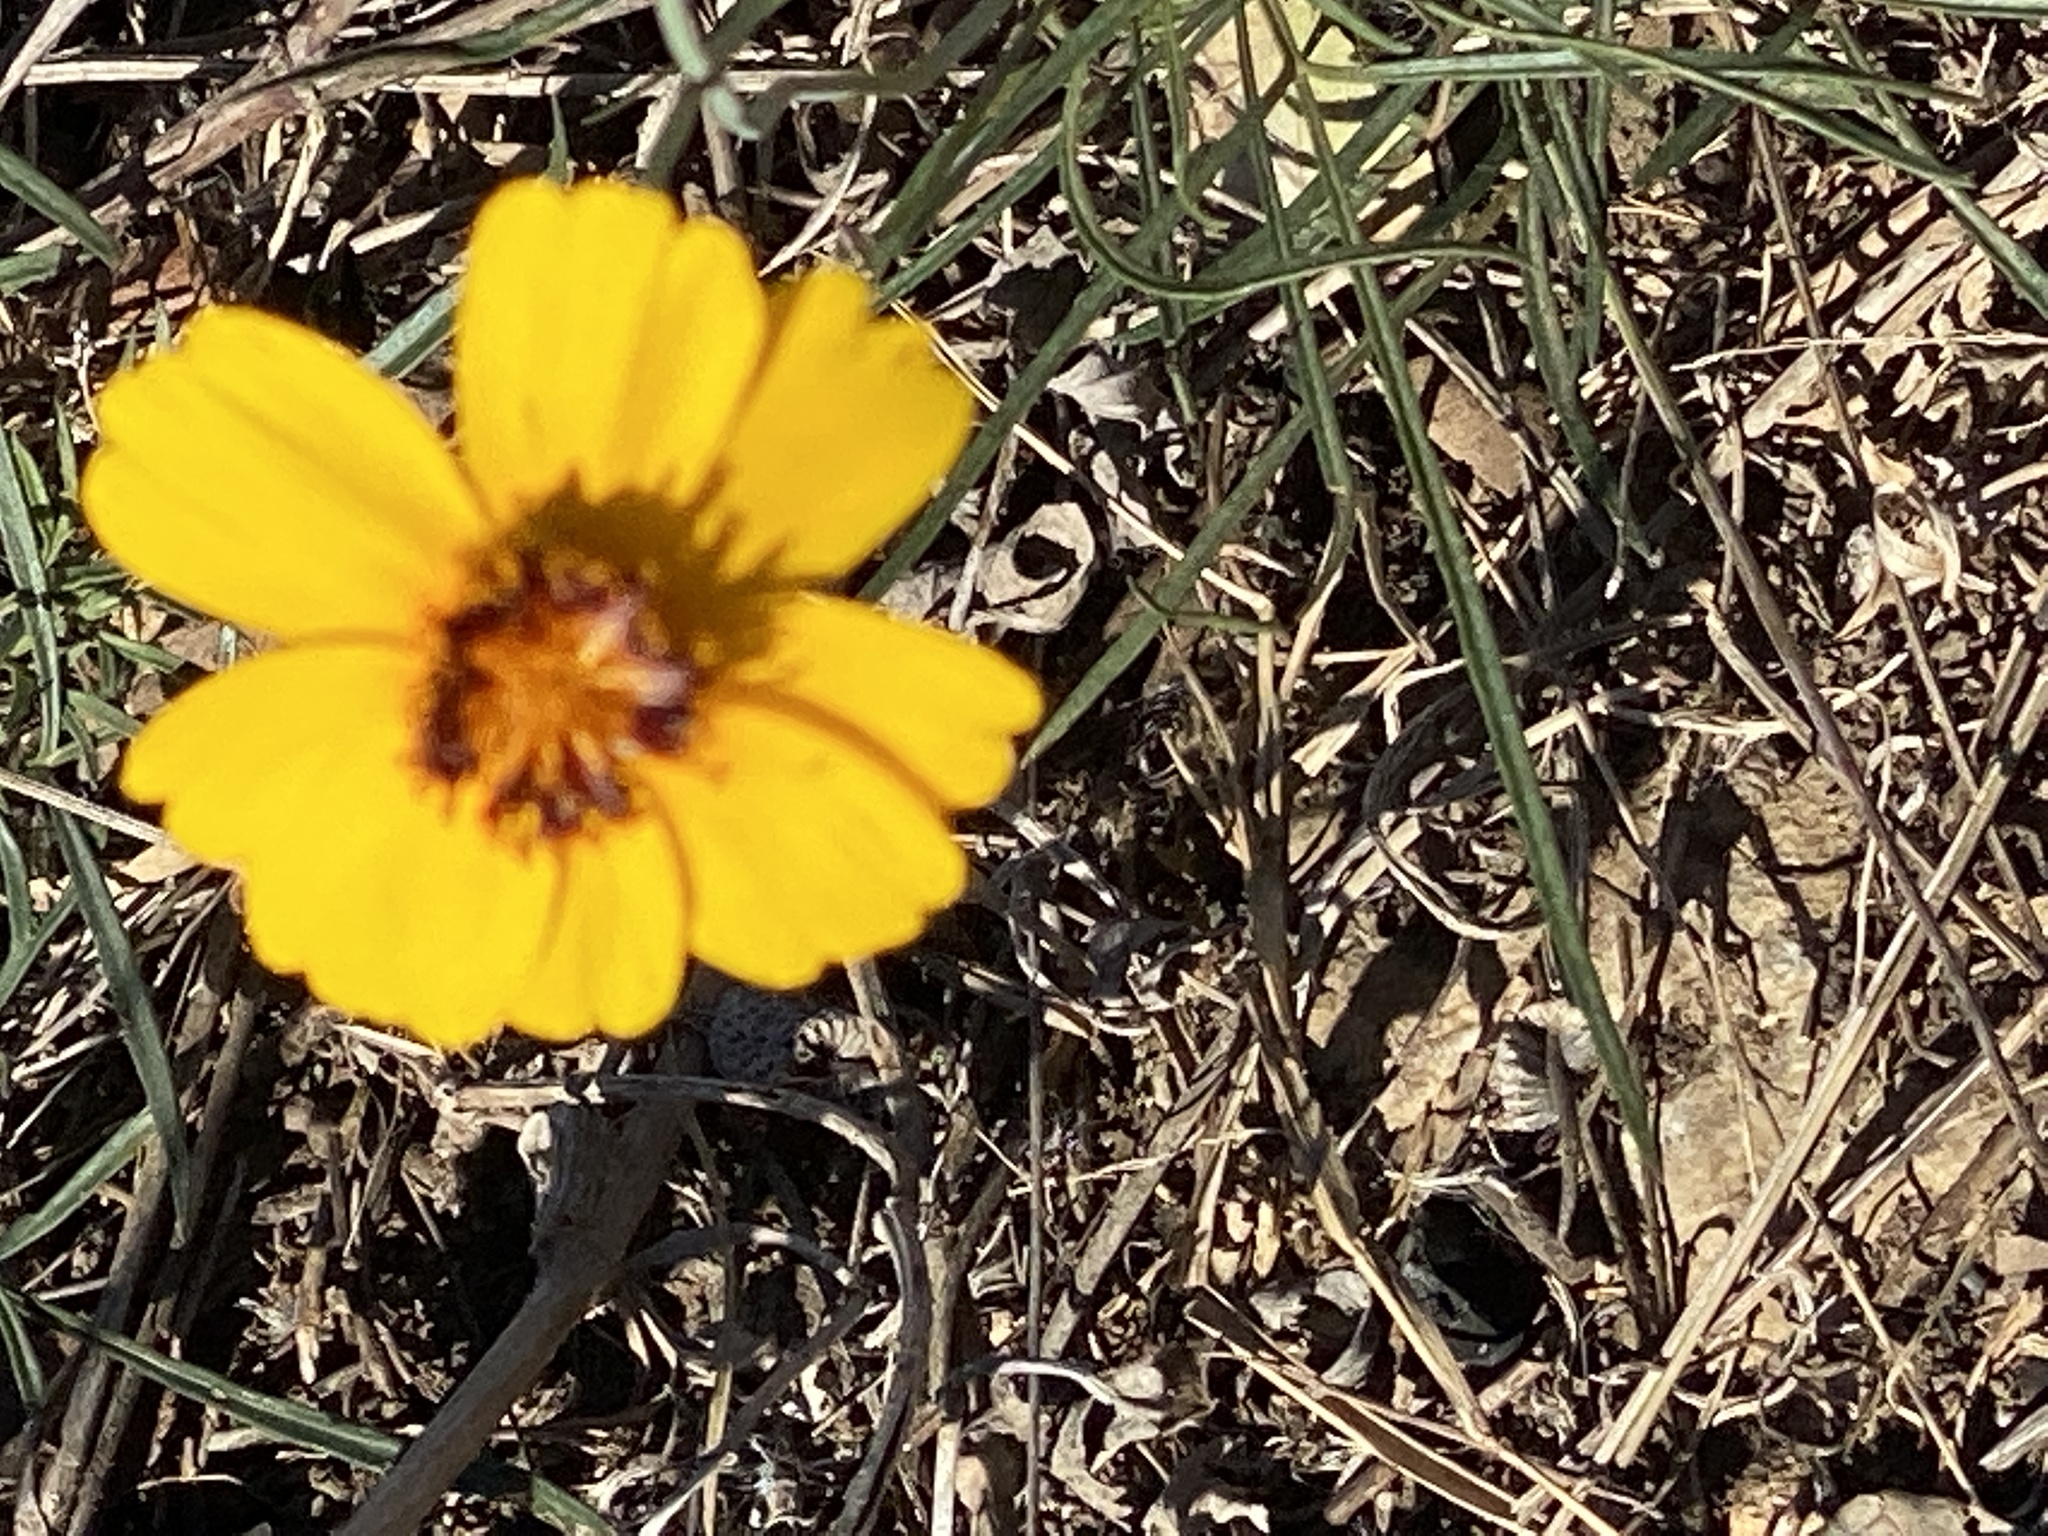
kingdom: Plantae
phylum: Tracheophyta
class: Magnoliopsida
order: Asterales
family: Asteraceae
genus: Thelesperma
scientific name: Thelesperma filifolium
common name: Stiff greenthread
